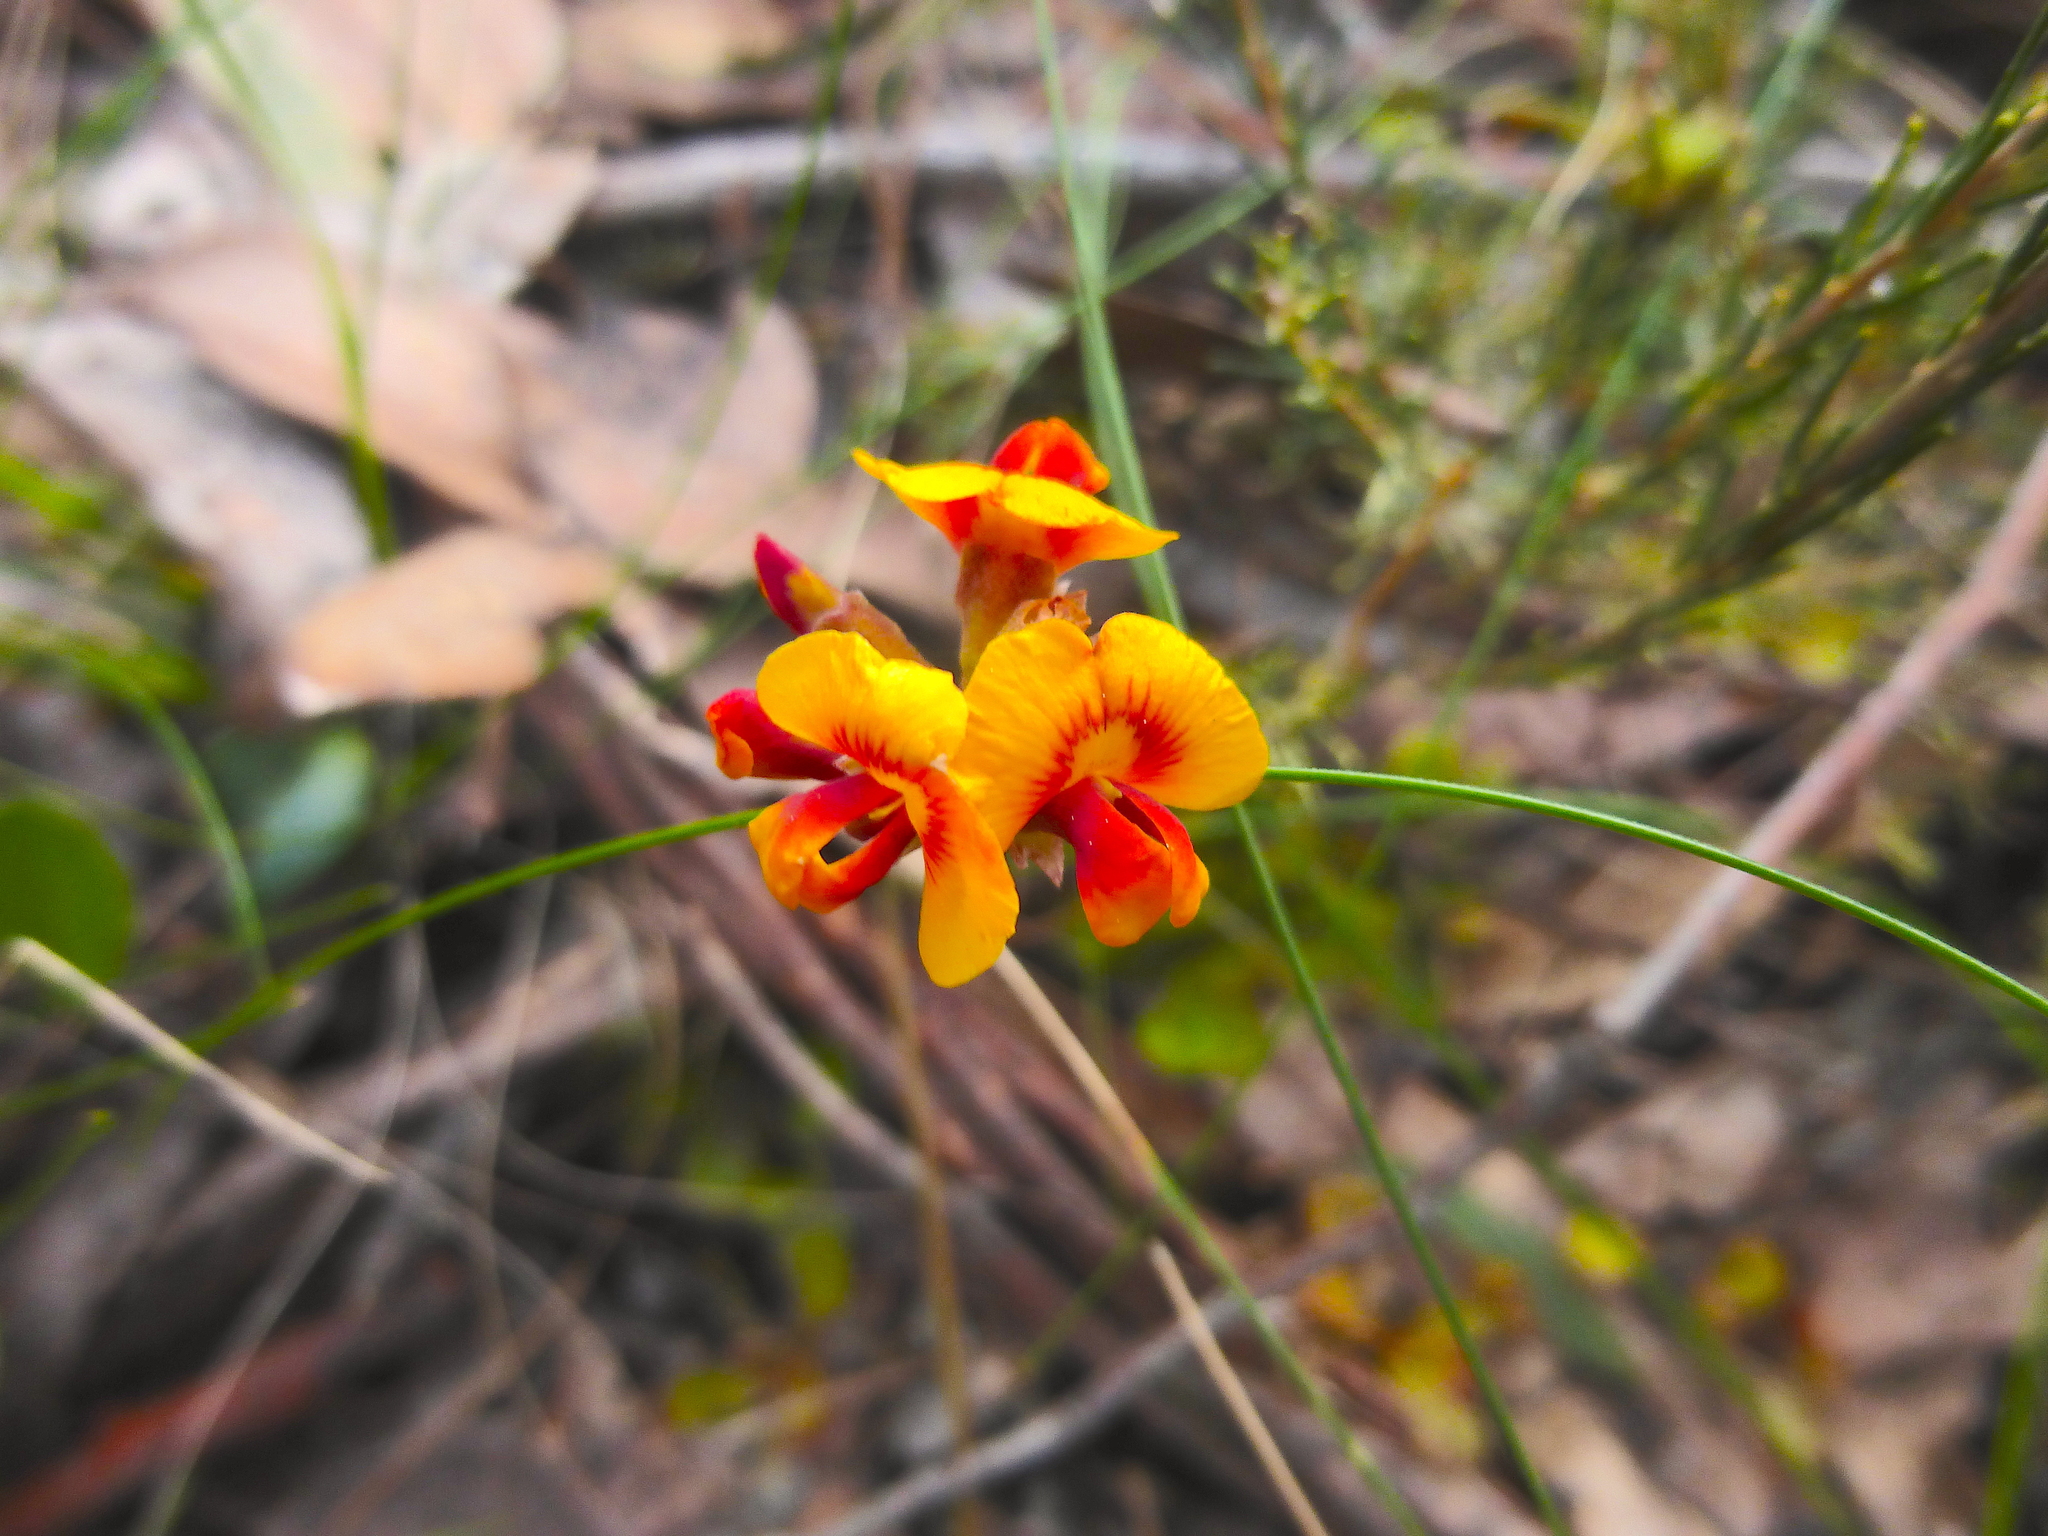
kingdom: Plantae
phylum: Tracheophyta
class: Magnoliopsida
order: Fabales
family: Fabaceae
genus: Dillwynia
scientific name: Dillwynia cinerascens
